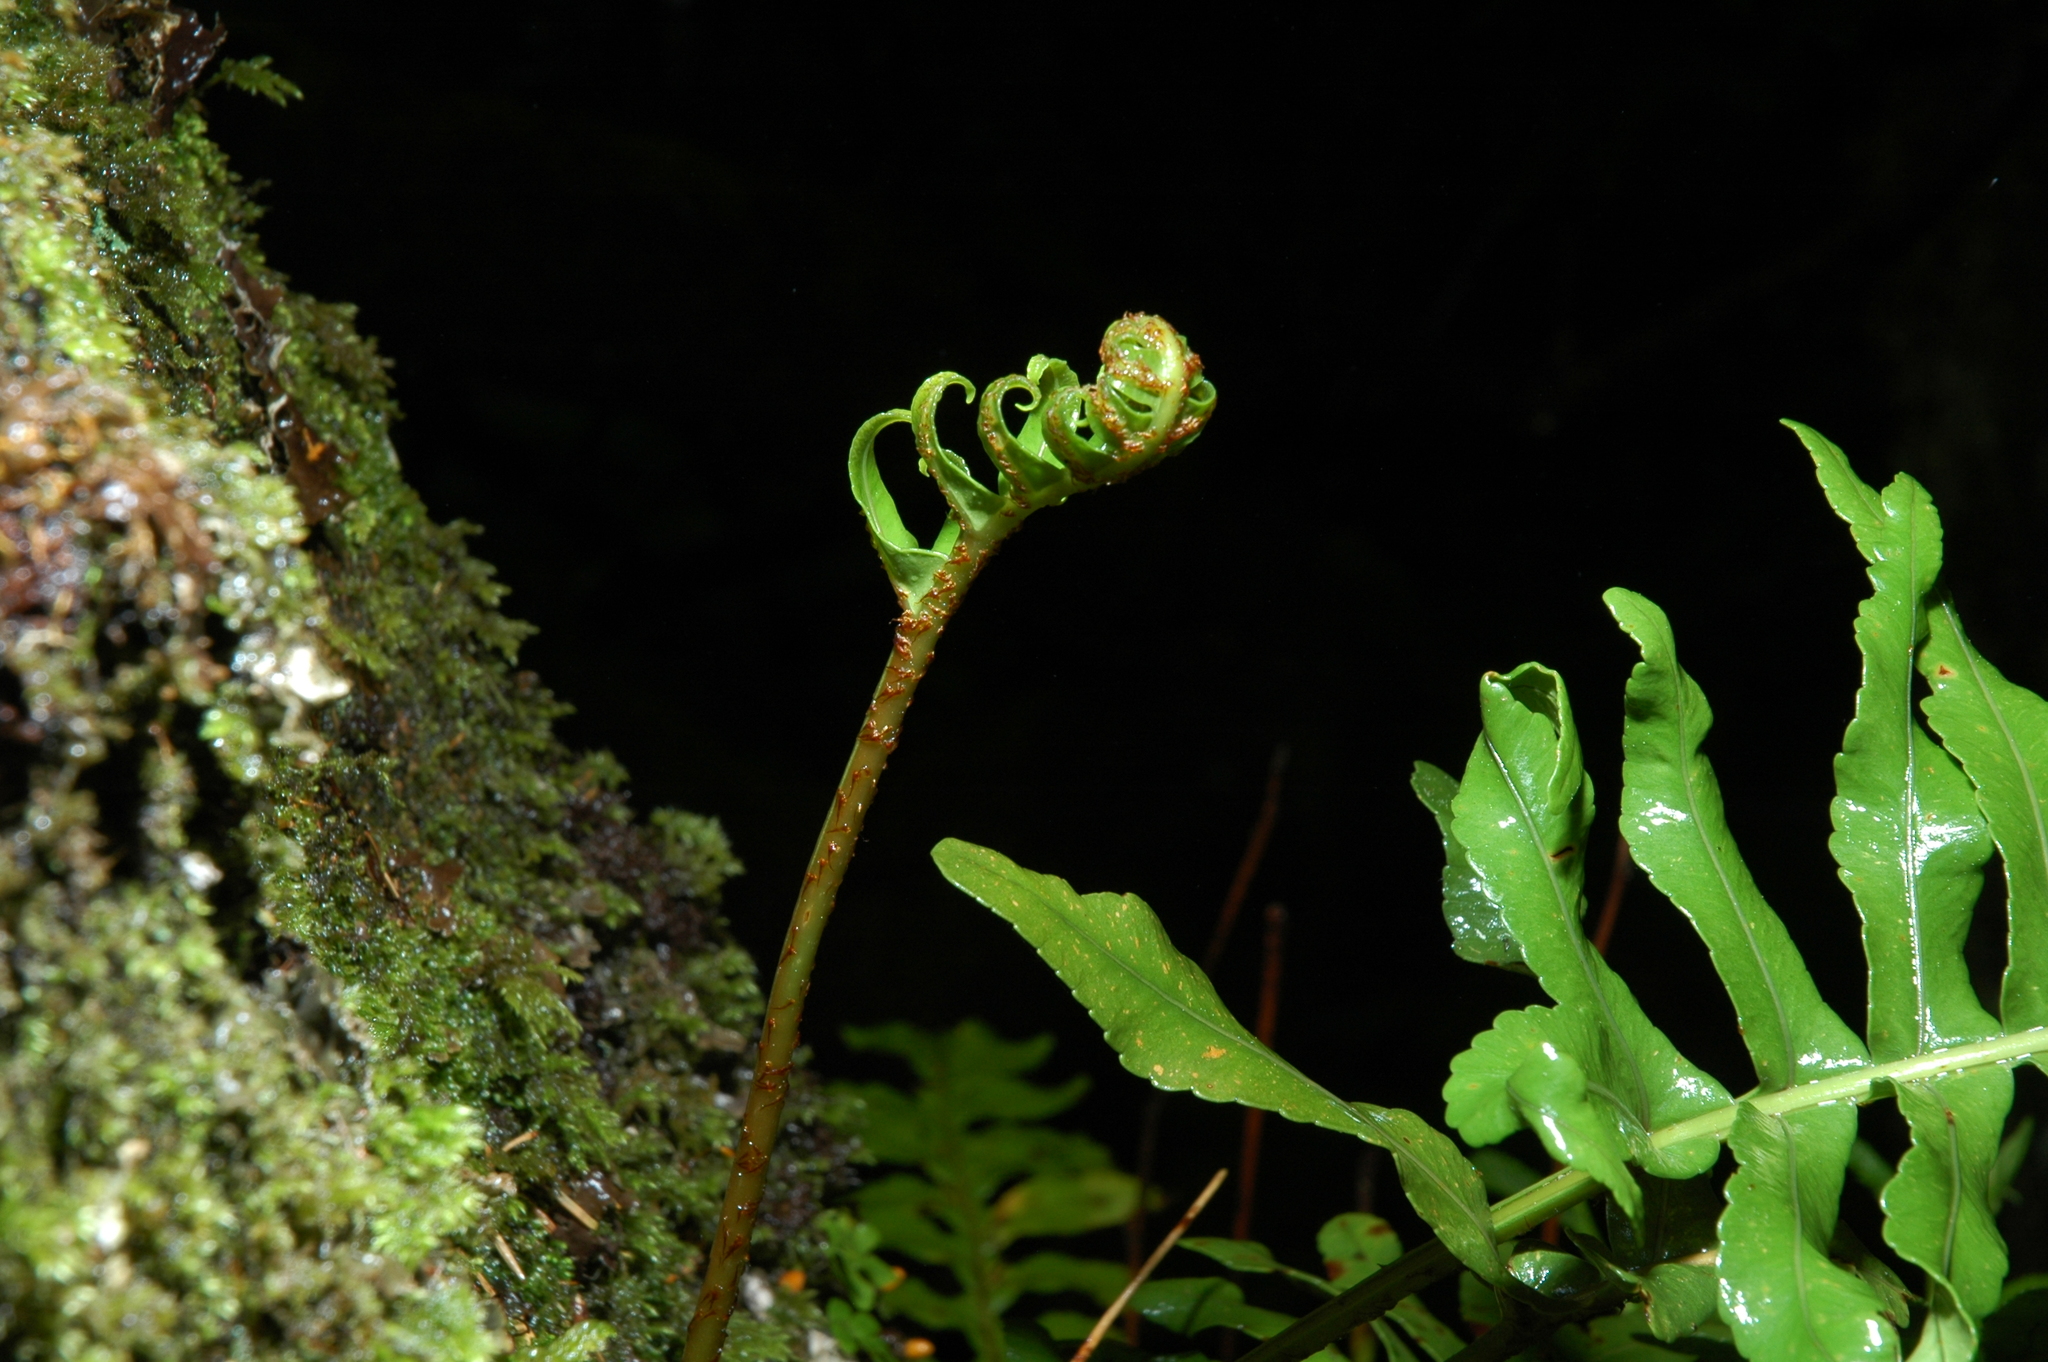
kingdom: Plantae
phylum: Tracheophyta
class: Polypodiopsida
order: Polypodiales
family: Polypodiaceae
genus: Polypodium
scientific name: Polypodium scouleri
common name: Scouler's polypody
